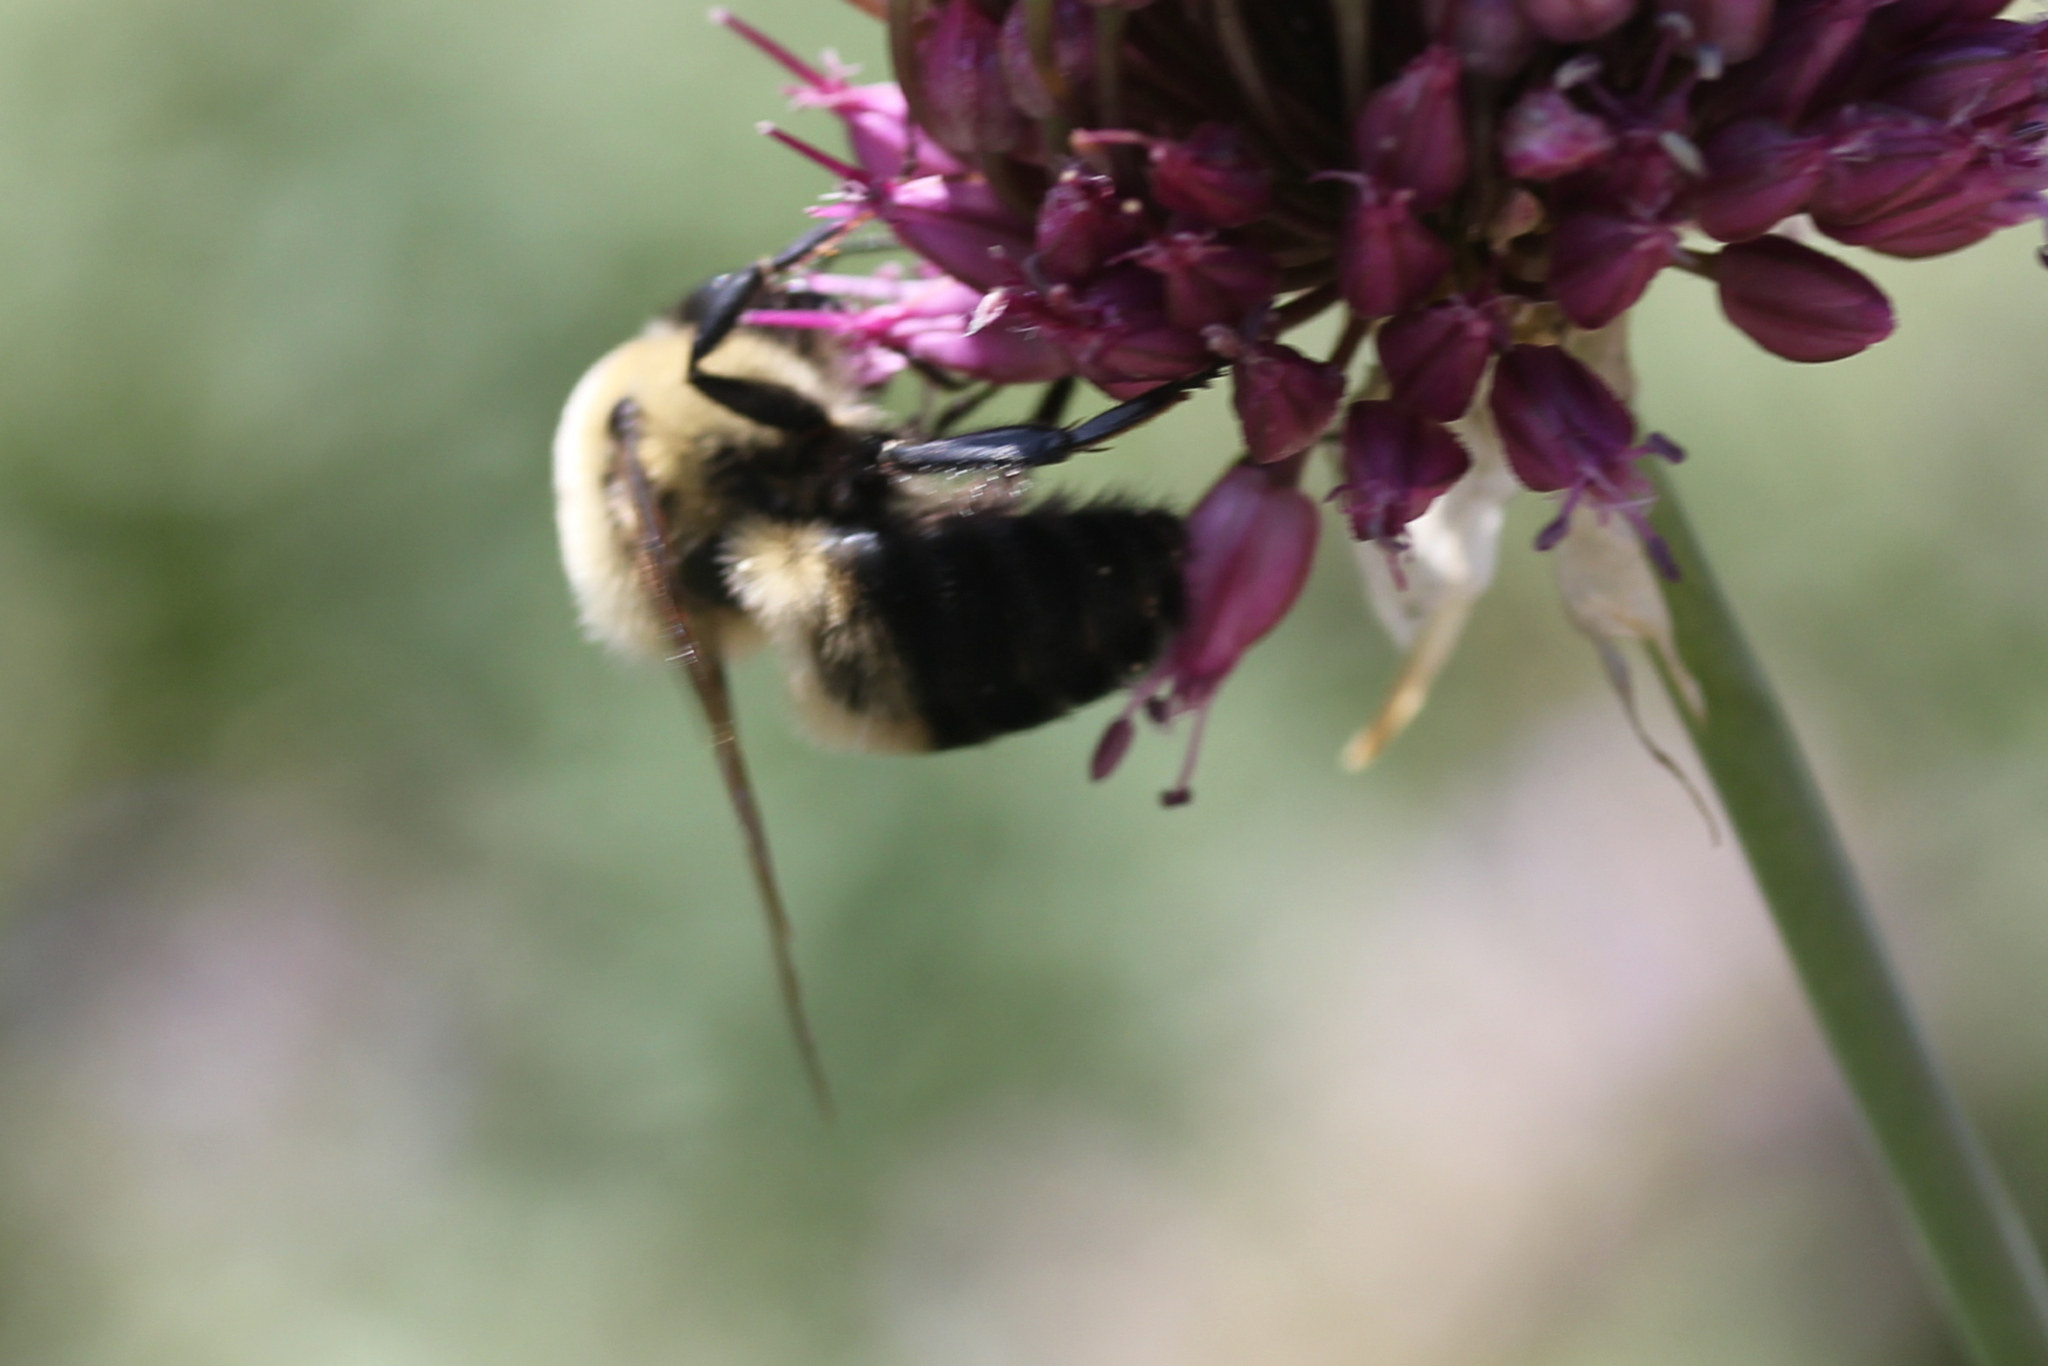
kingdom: Animalia
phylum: Arthropoda
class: Insecta
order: Hymenoptera
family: Apidae
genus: Bombus
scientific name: Bombus griseocollis
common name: Brown-belted bumble bee
